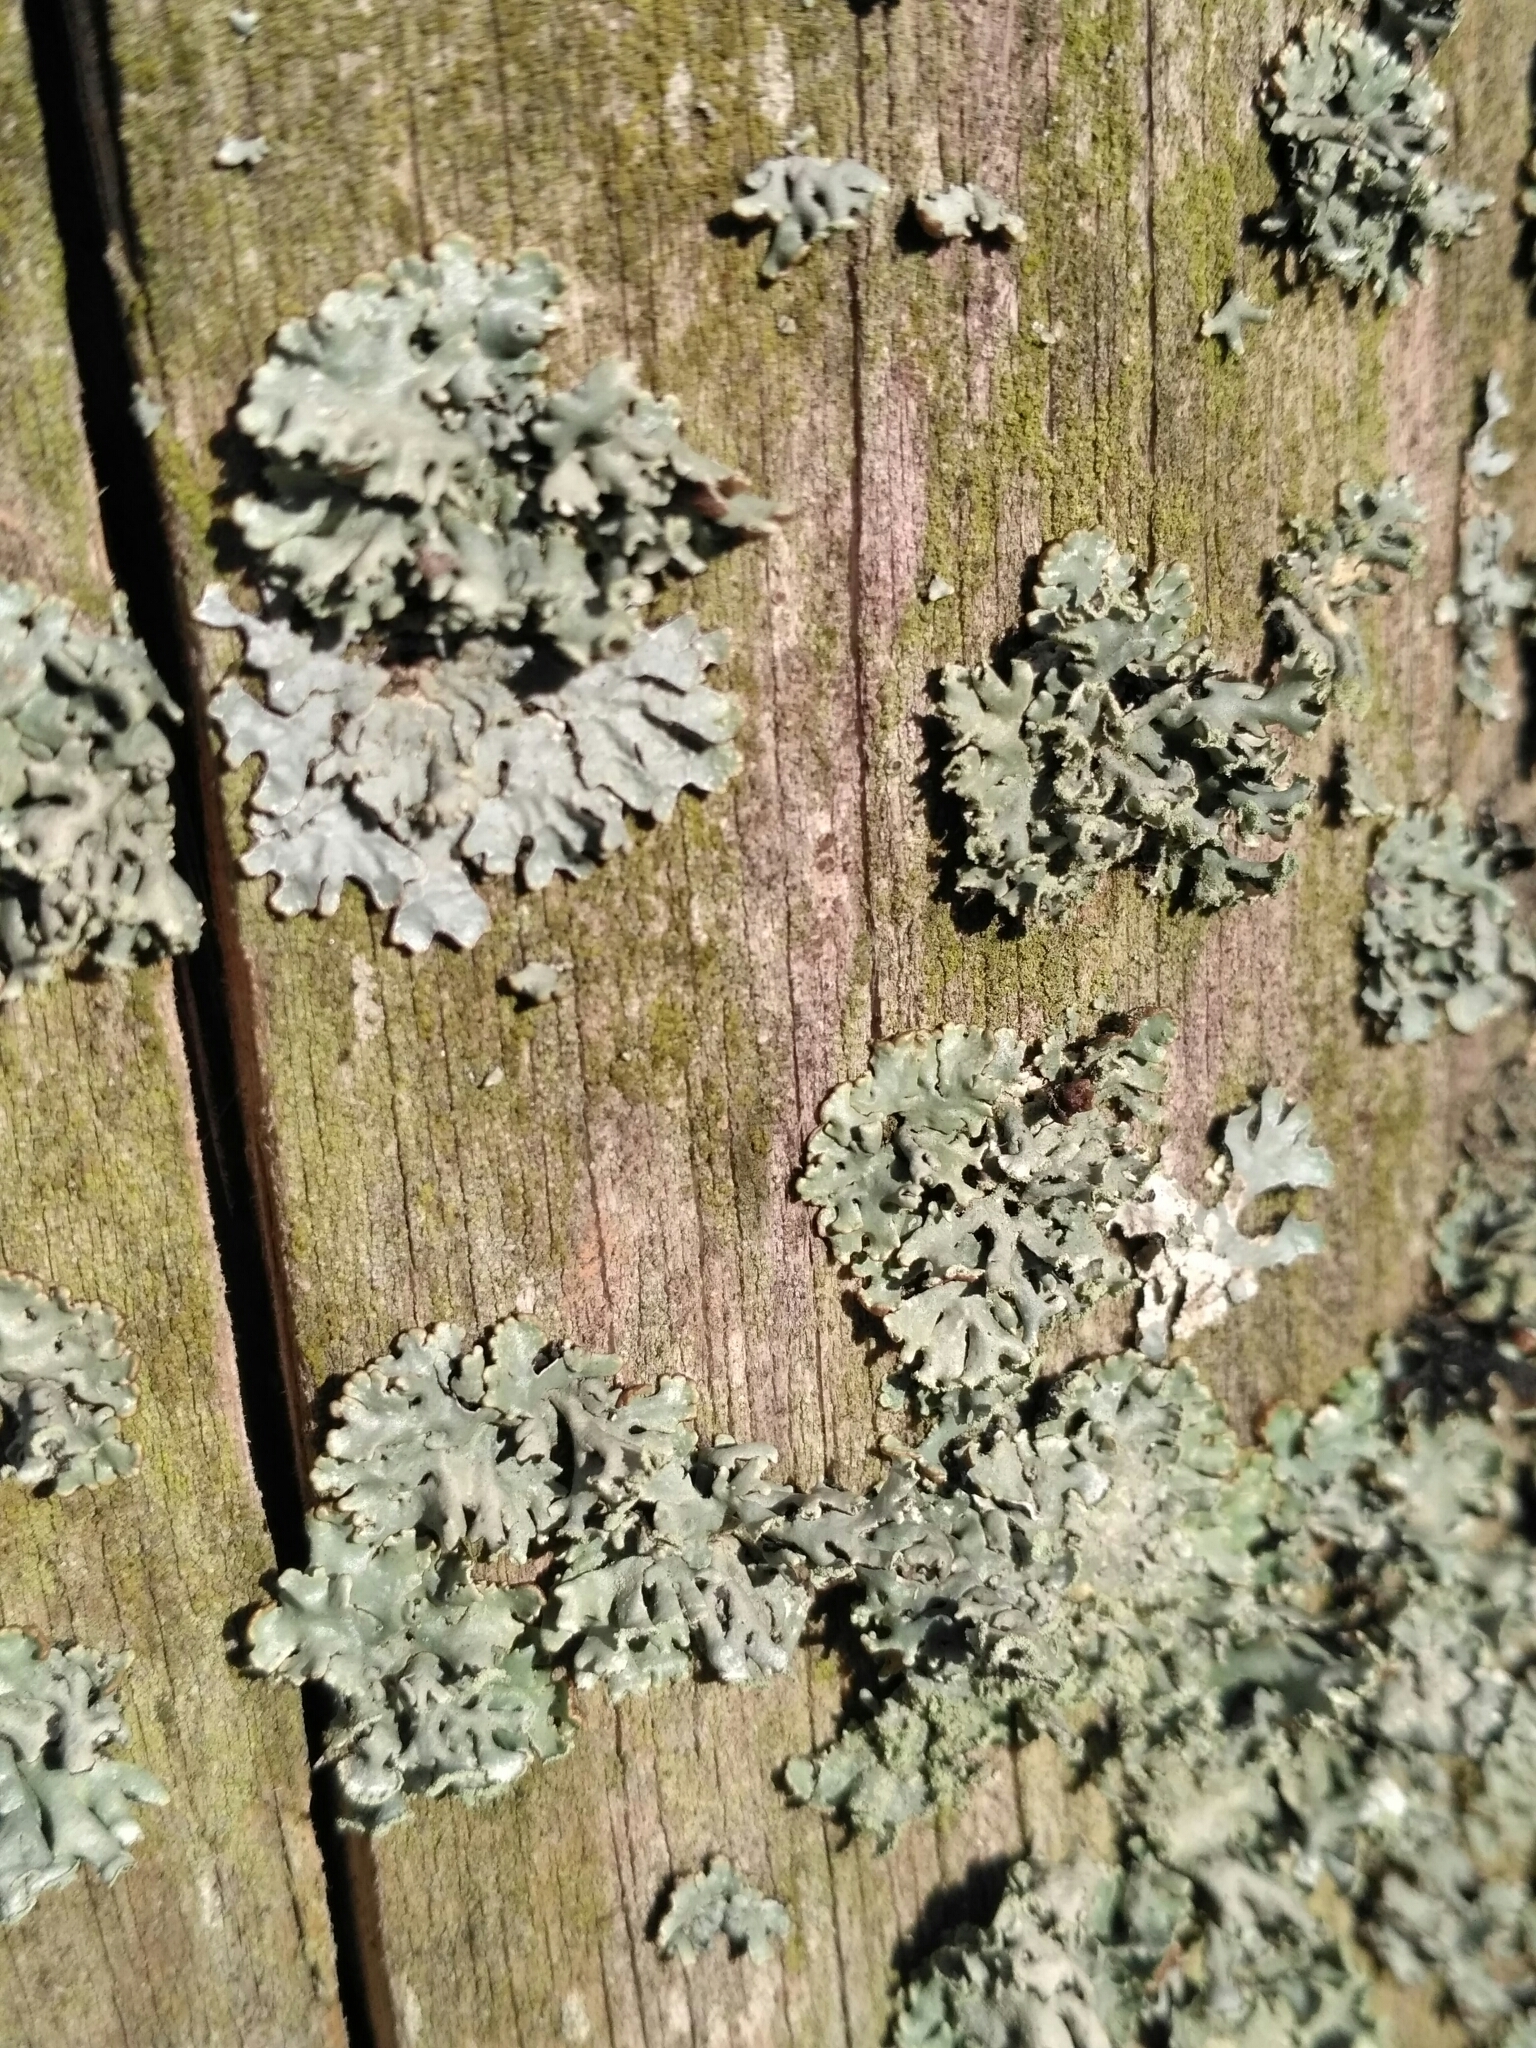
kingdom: Fungi
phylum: Ascomycota
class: Lecanoromycetes
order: Lecanorales
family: Parmeliaceae
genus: Hypogymnia
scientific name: Hypogymnia physodes
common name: Dark crottle
